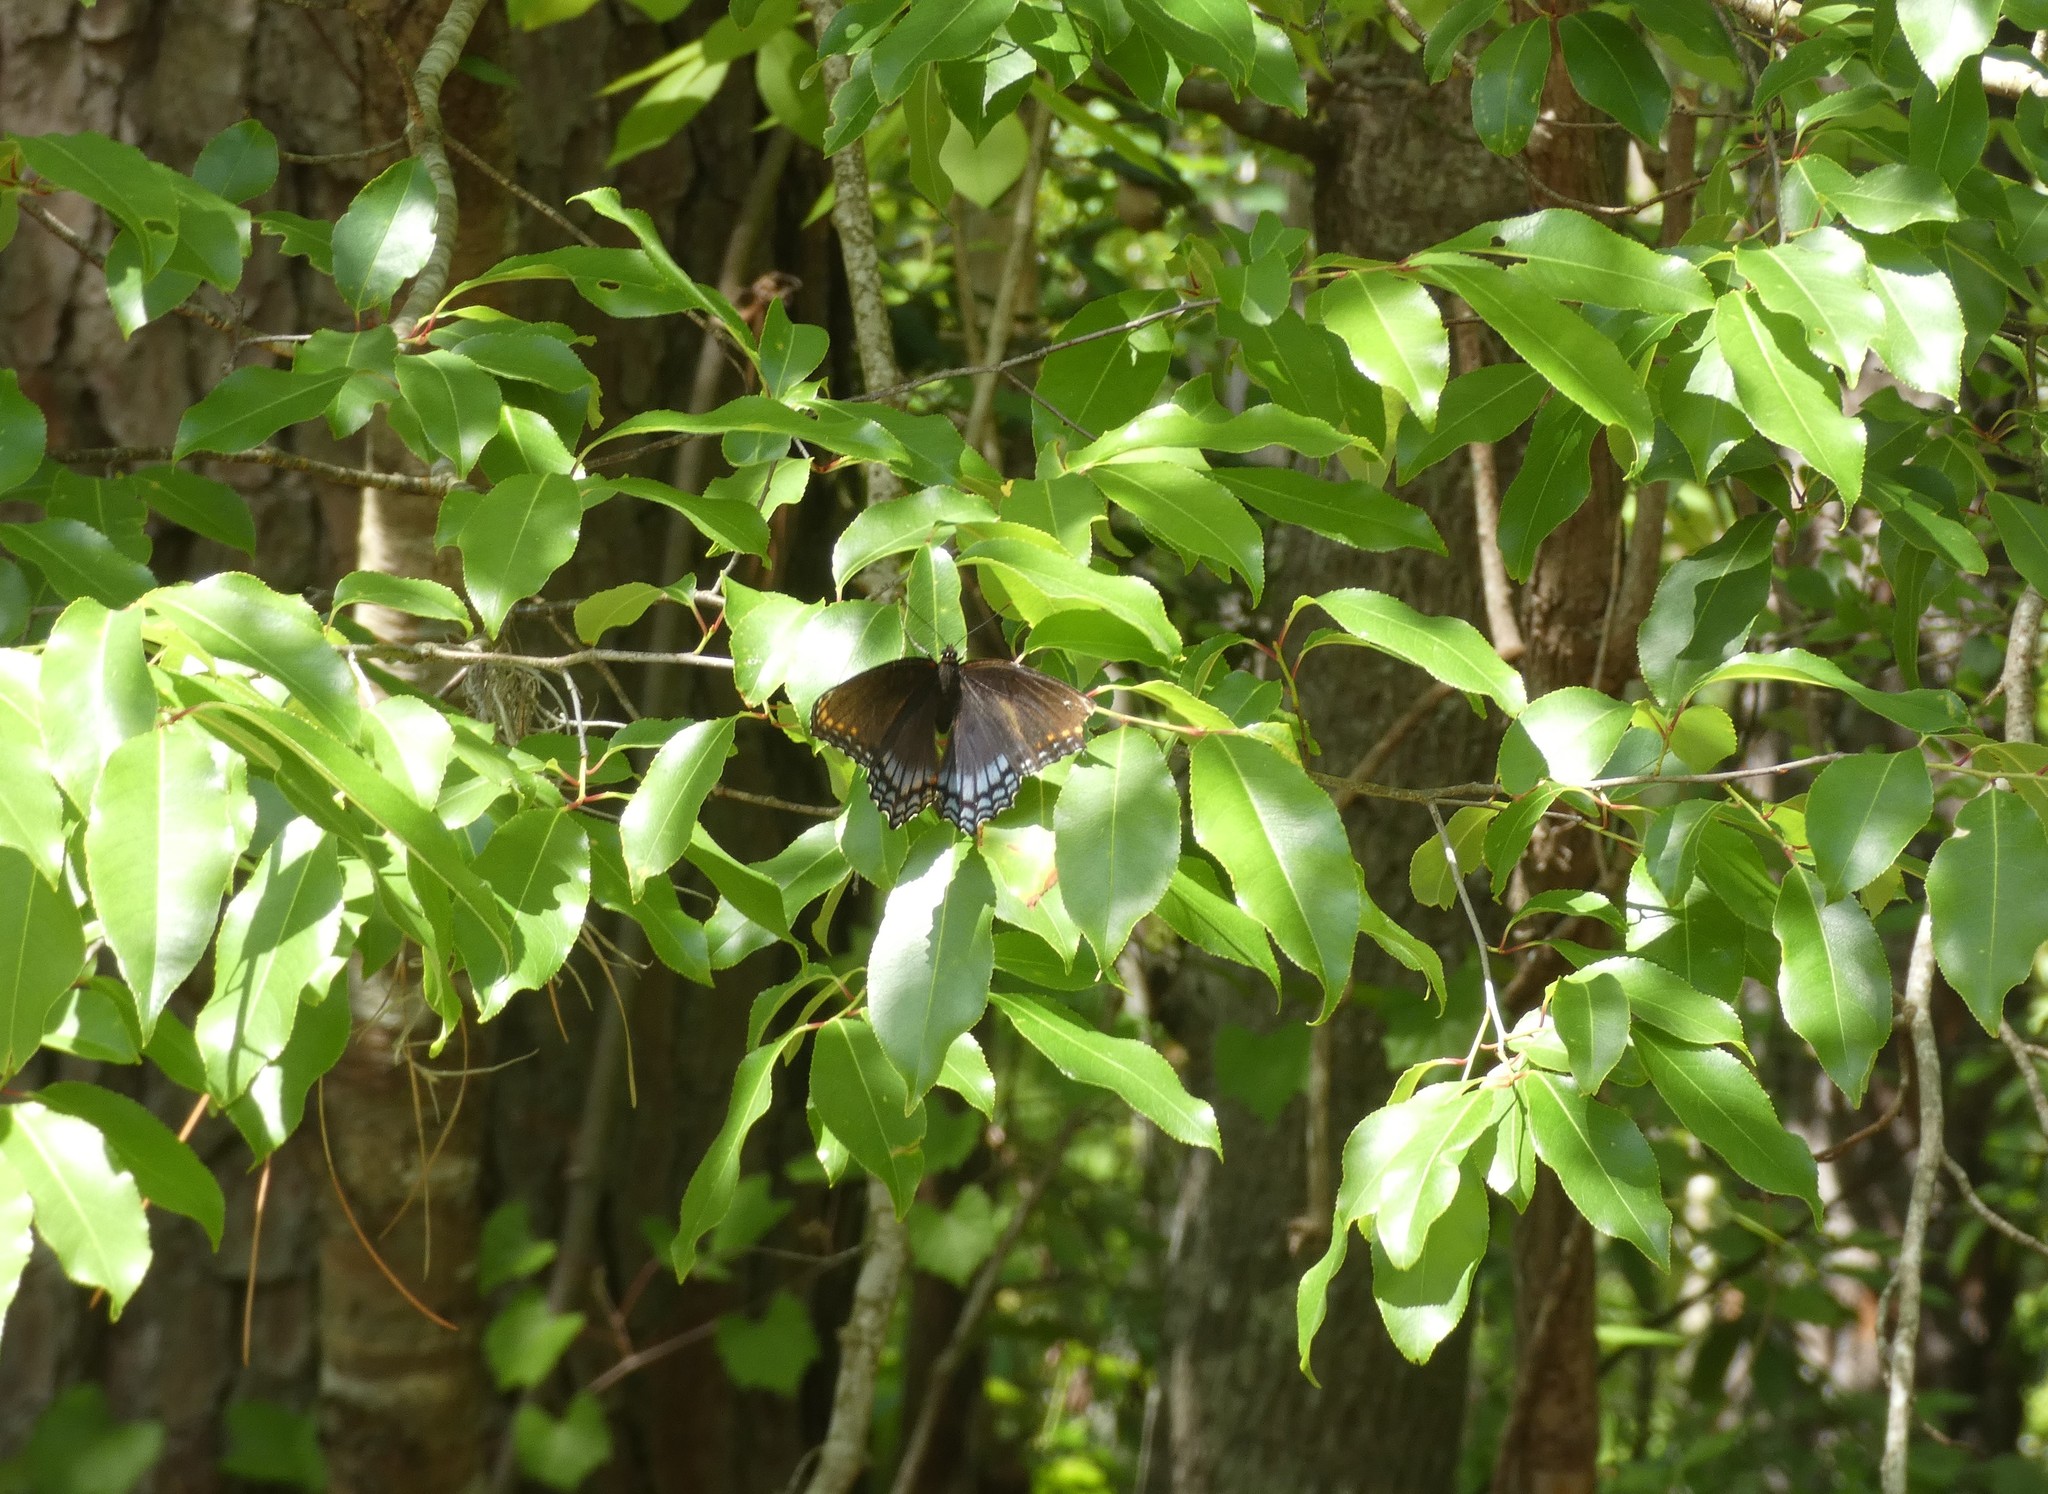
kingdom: Animalia
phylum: Arthropoda
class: Insecta
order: Lepidoptera
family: Nymphalidae
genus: Limenitis
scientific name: Limenitis astyanax
